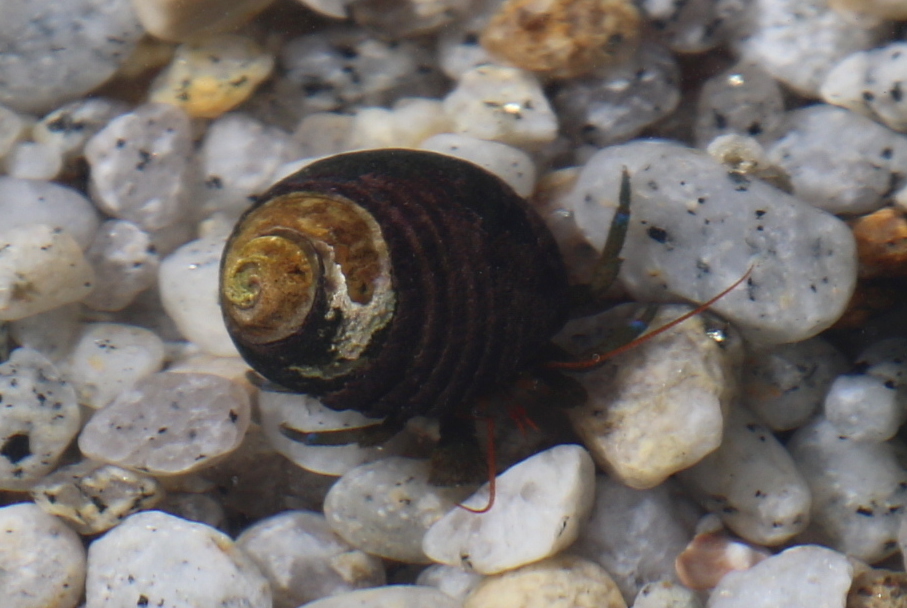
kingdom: Animalia
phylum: Arthropoda
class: Malacostraca
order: Decapoda
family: Paguridae
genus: Pagurus
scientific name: Pagurus samuelis
